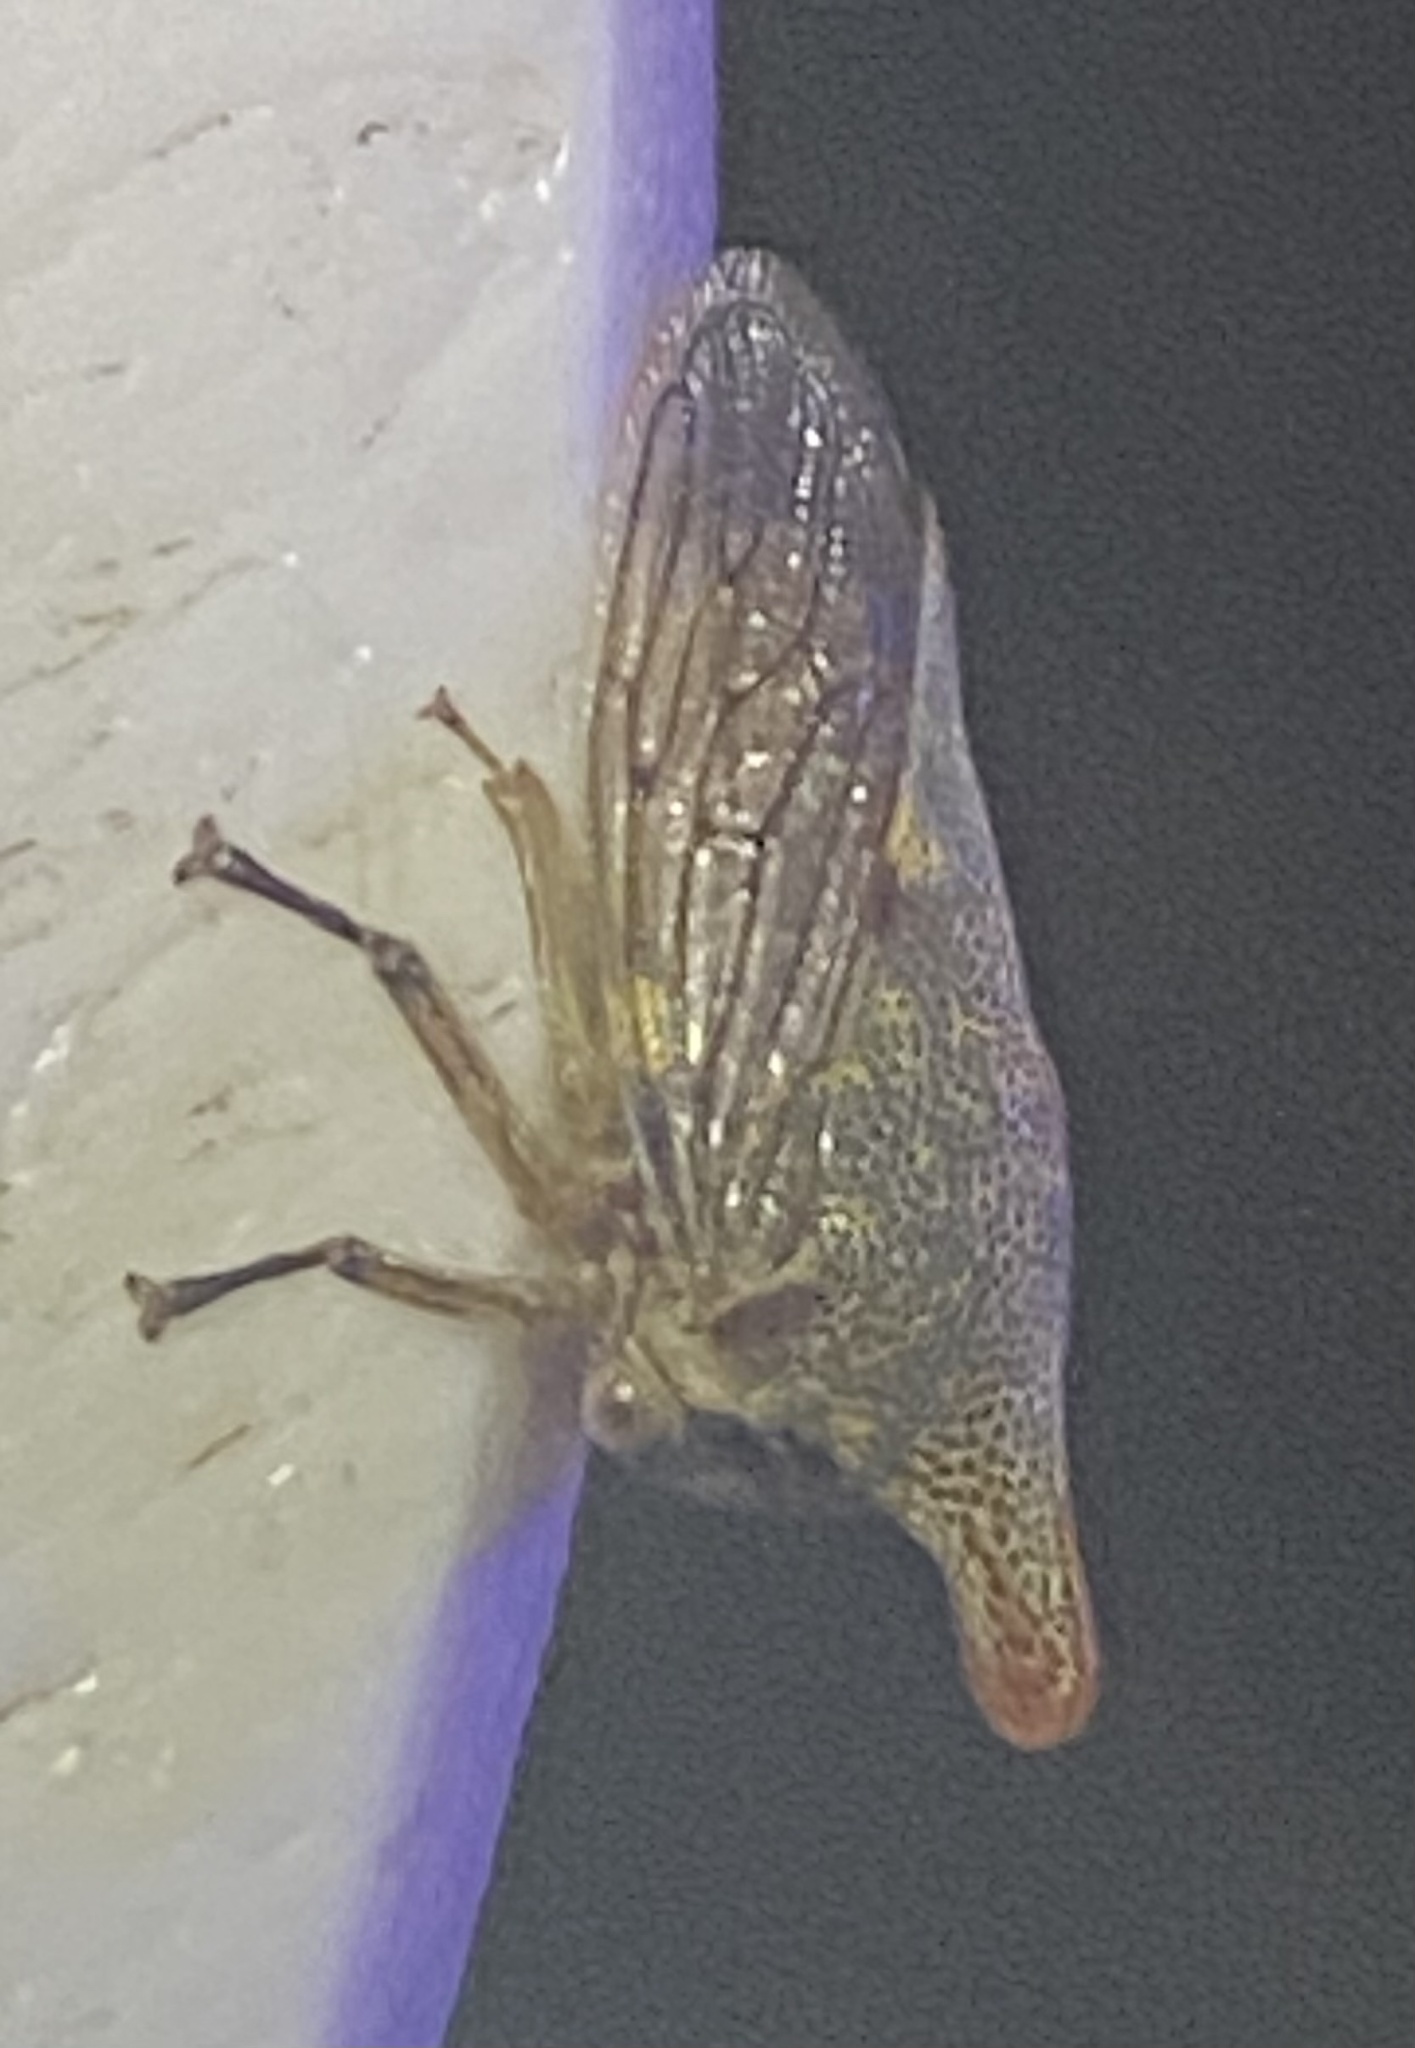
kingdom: Animalia
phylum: Arthropoda
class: Insecta
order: Hemiptera
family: Membracidae
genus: Platycotis
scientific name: Platycotis vittatus
